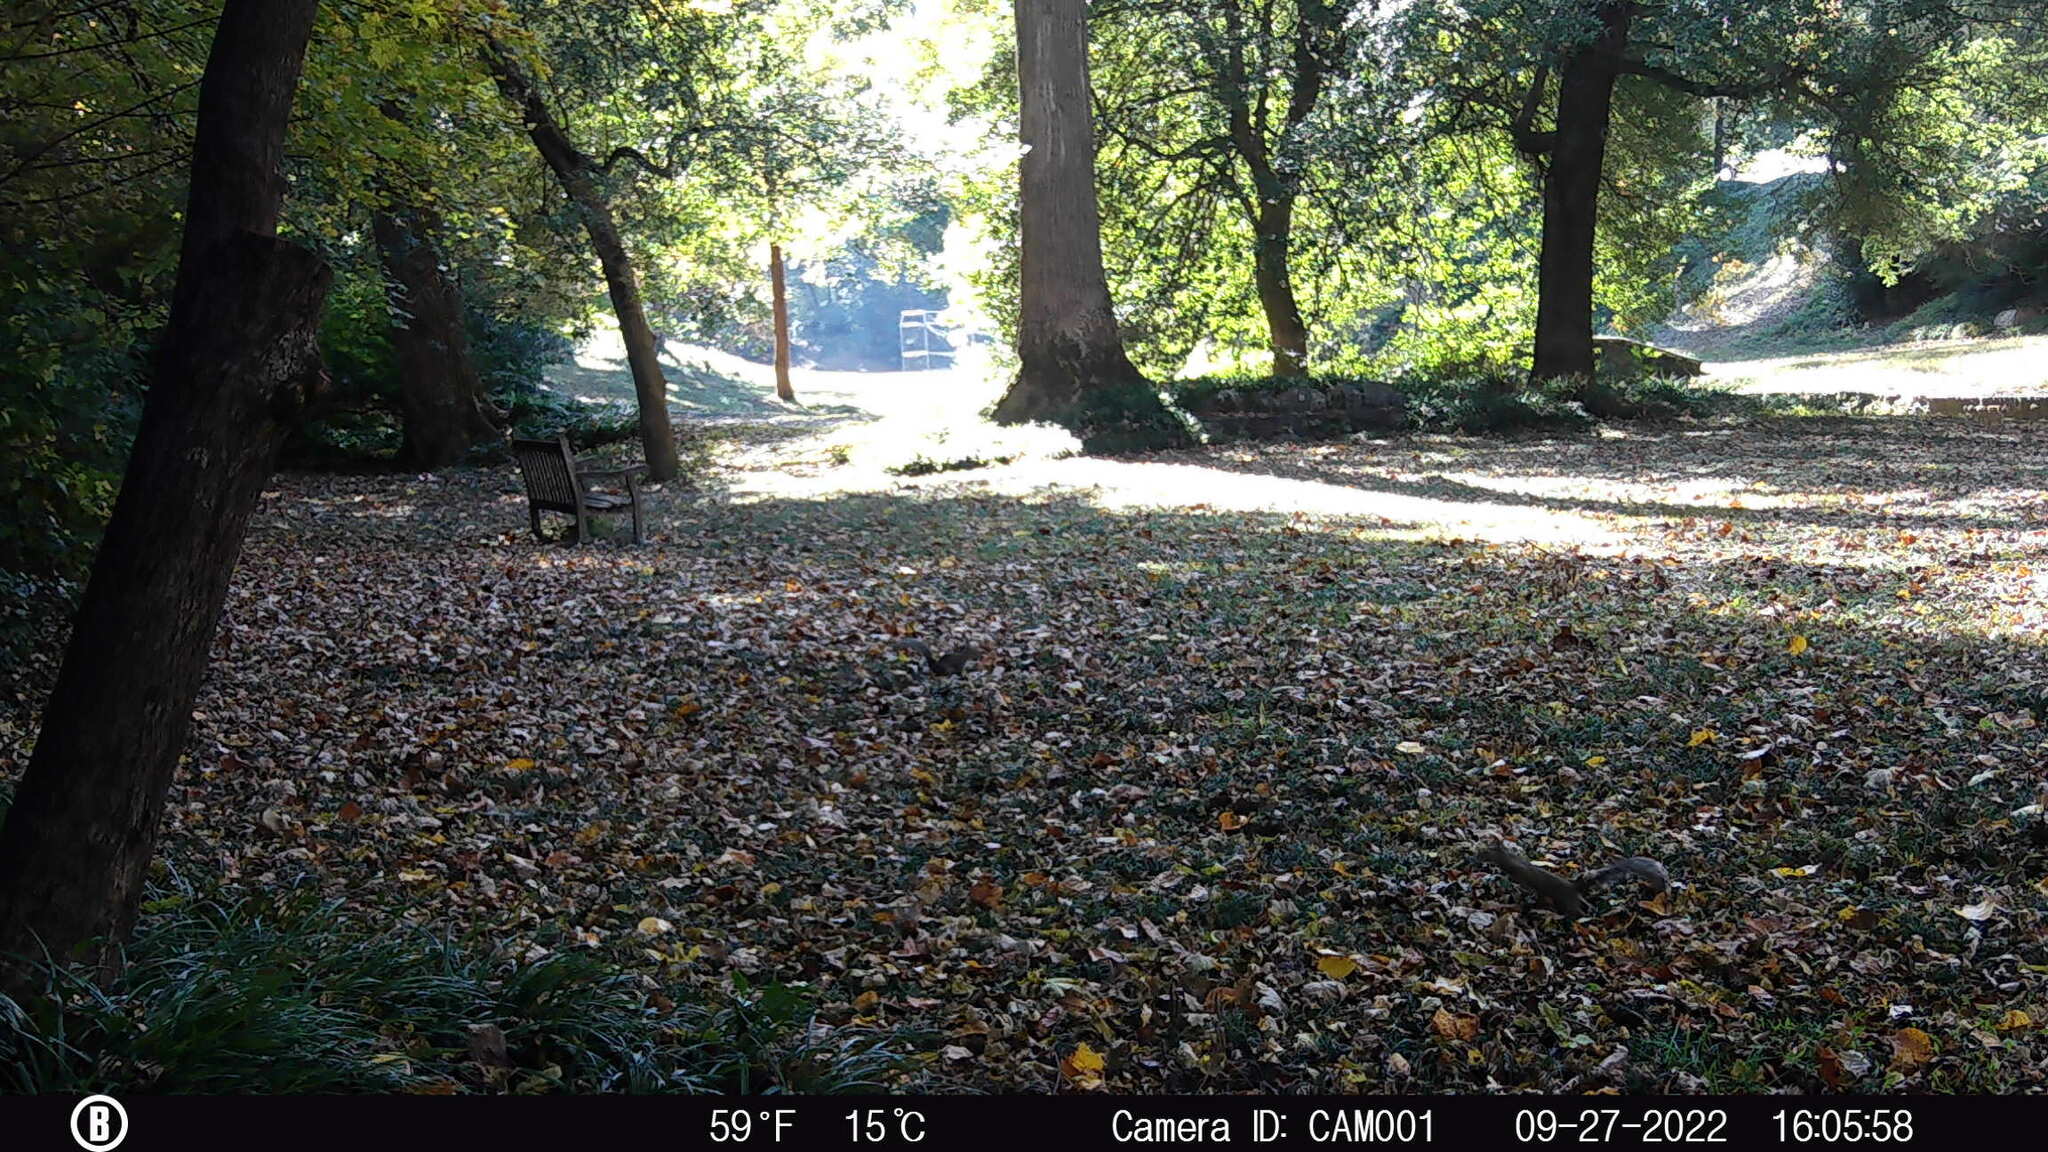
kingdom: Animalia
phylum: Chordata
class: Mammalia
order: Rodentia
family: Sciuridae
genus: Sciurus
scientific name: Sciurus carolinensis
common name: Eastern gray squirrel
